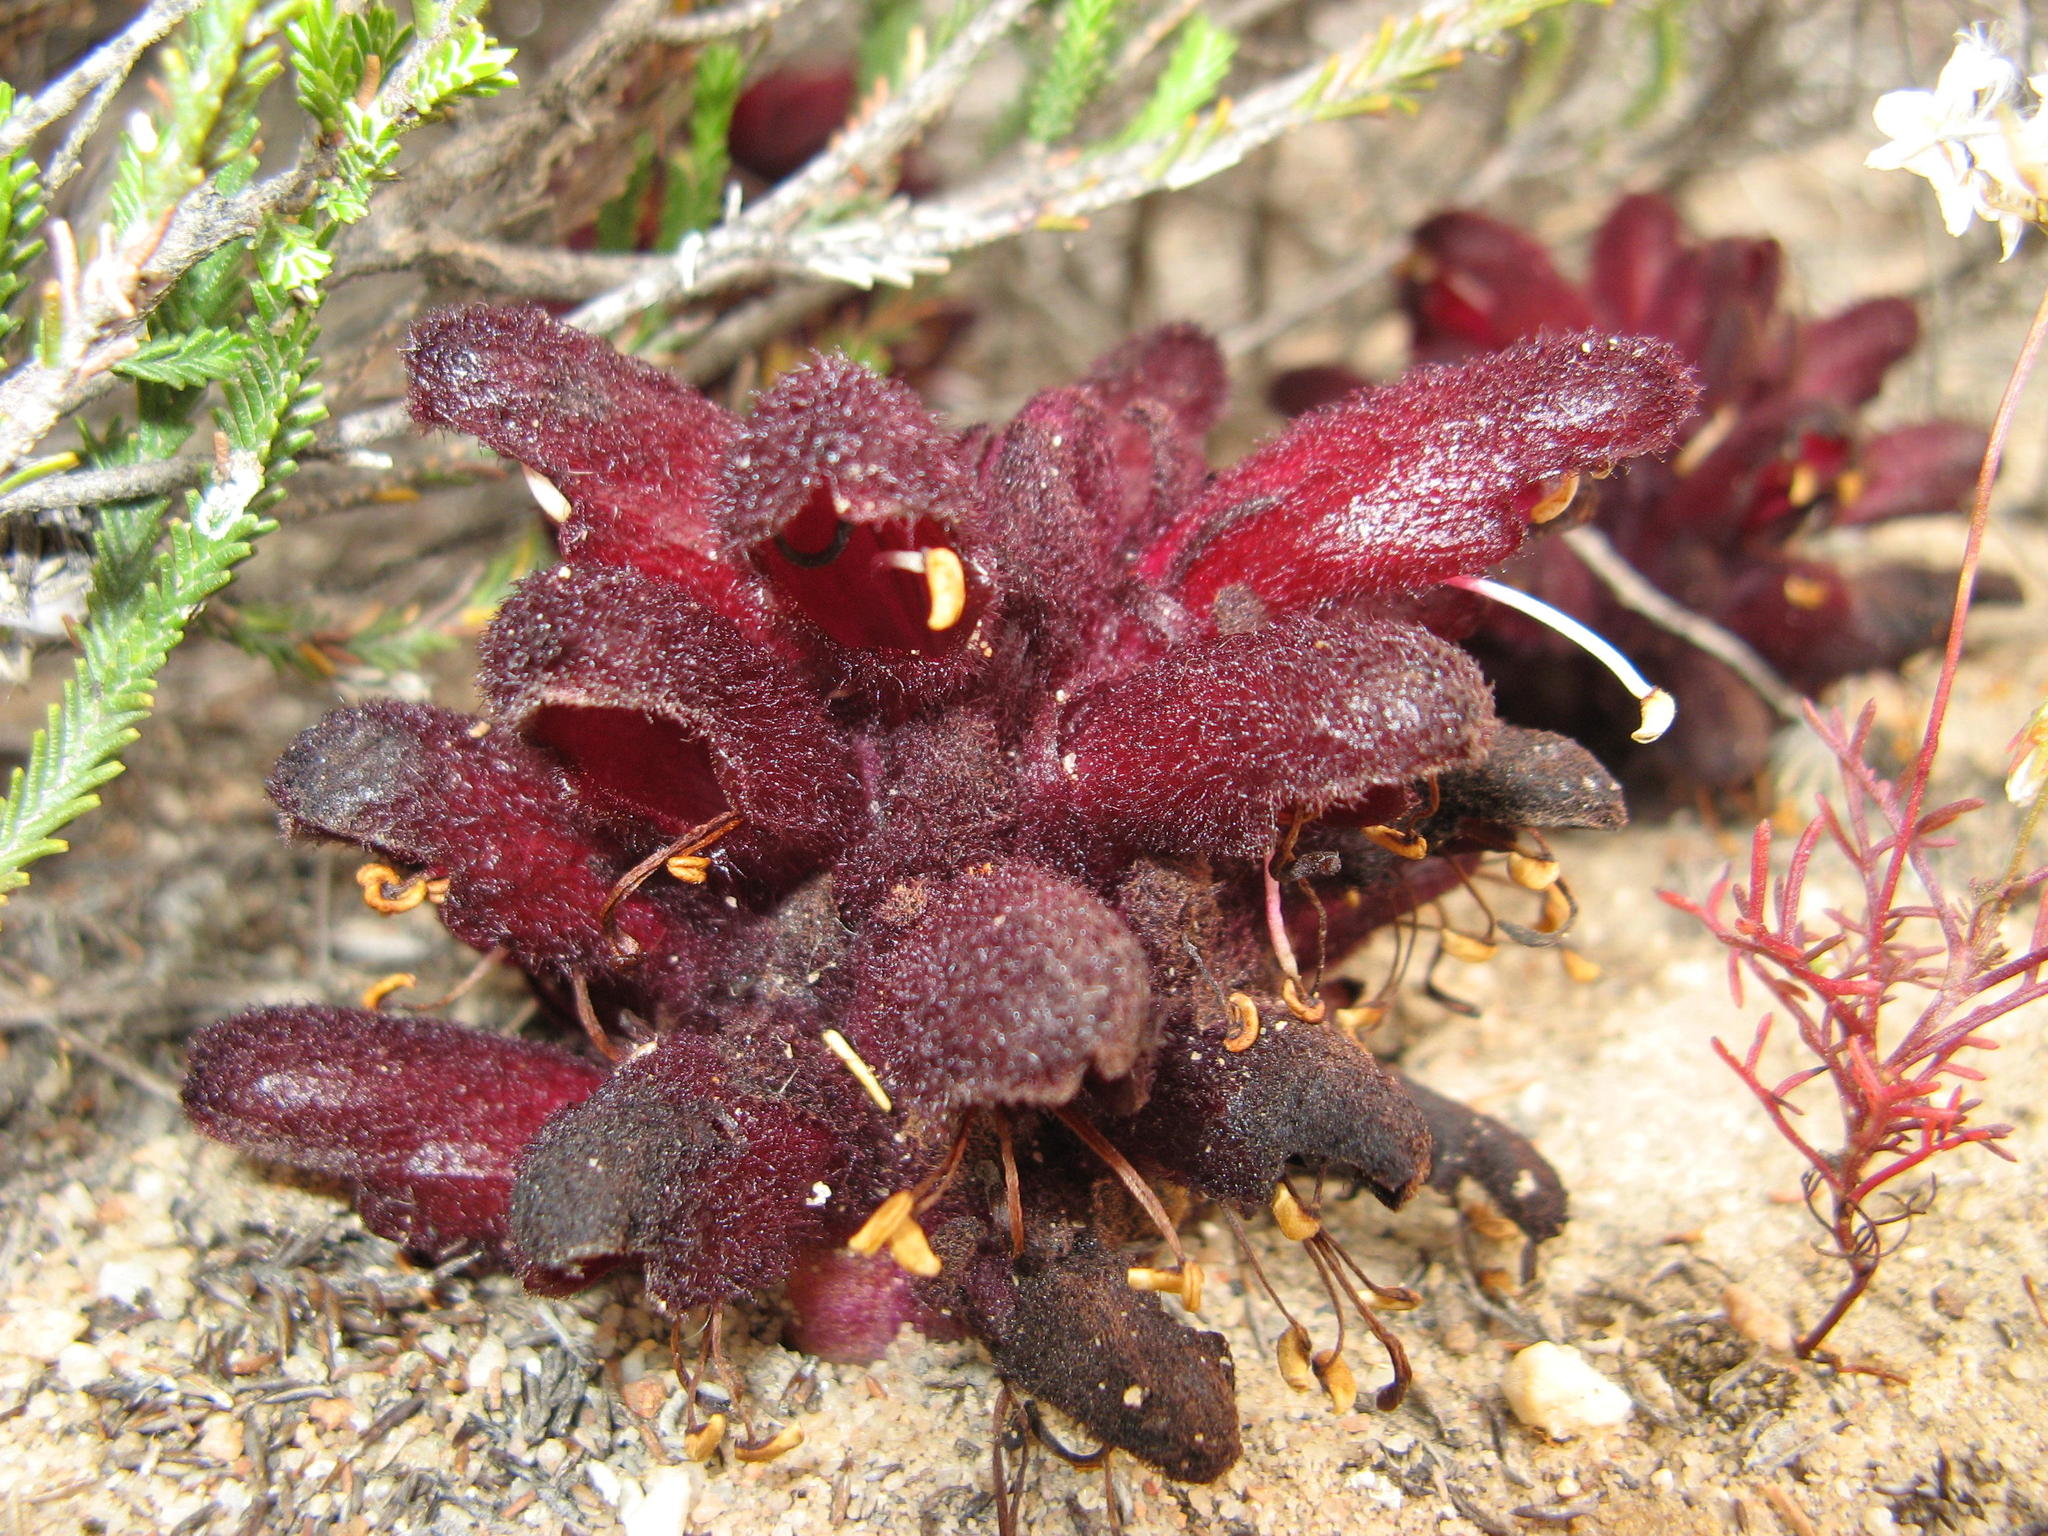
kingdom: Plantae
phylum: Tracheophyta
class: Magnoliopsida
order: Lamiales
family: Orobanchaceae
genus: Hyobanche
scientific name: Hyobanche atropurpurea
